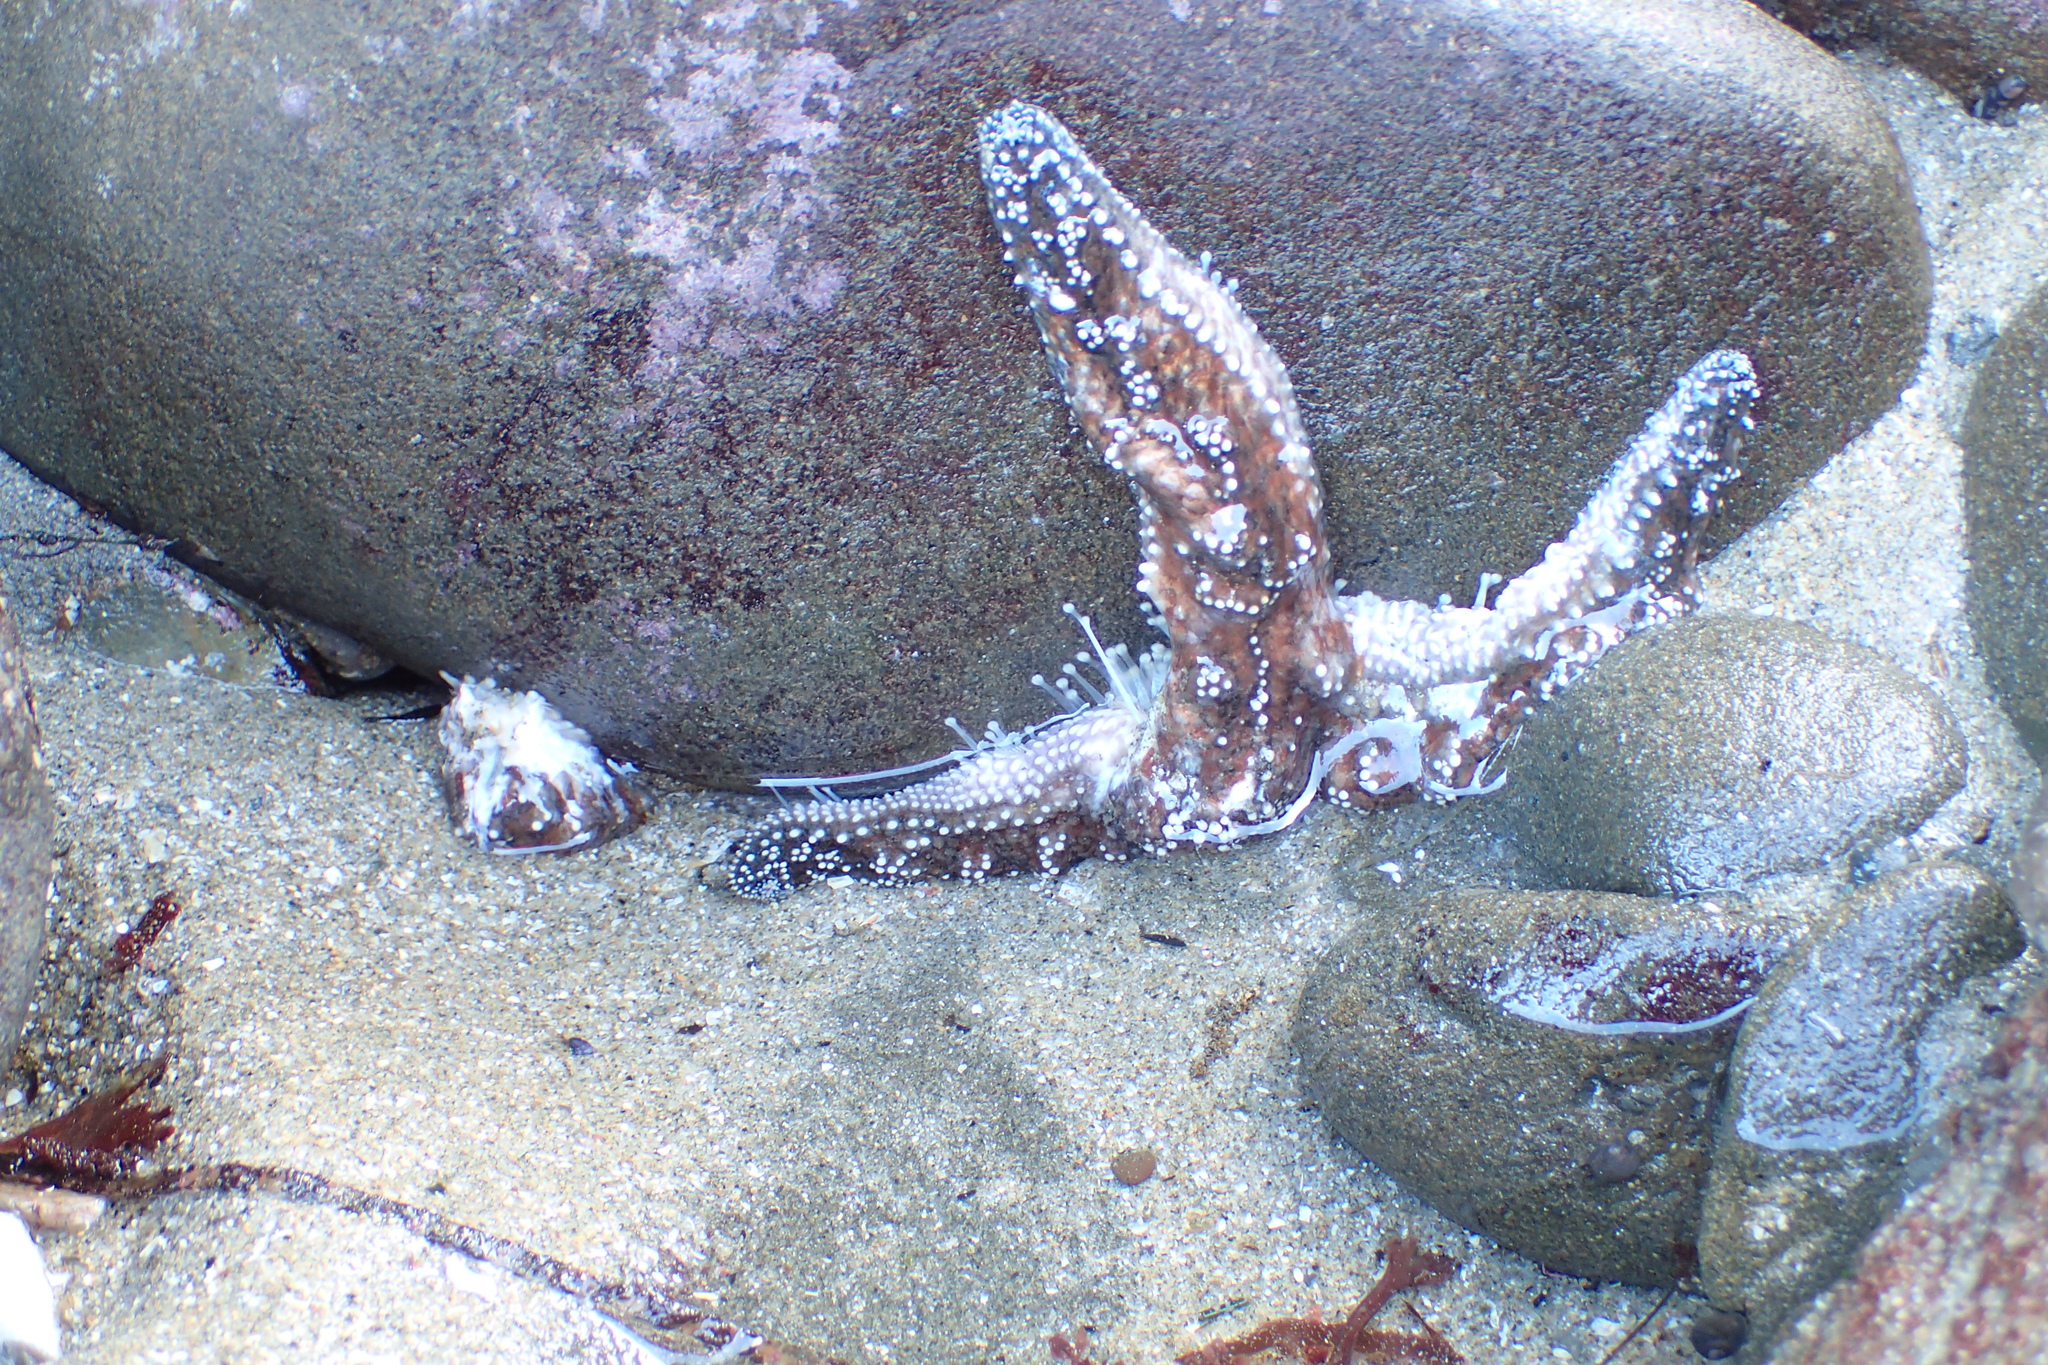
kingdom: Animalia
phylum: Echinodermata
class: Asteroidea
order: Forcipulatida
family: Asteriidae
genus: Pisaster
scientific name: Pisaster ochraceus
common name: Ochre stars
